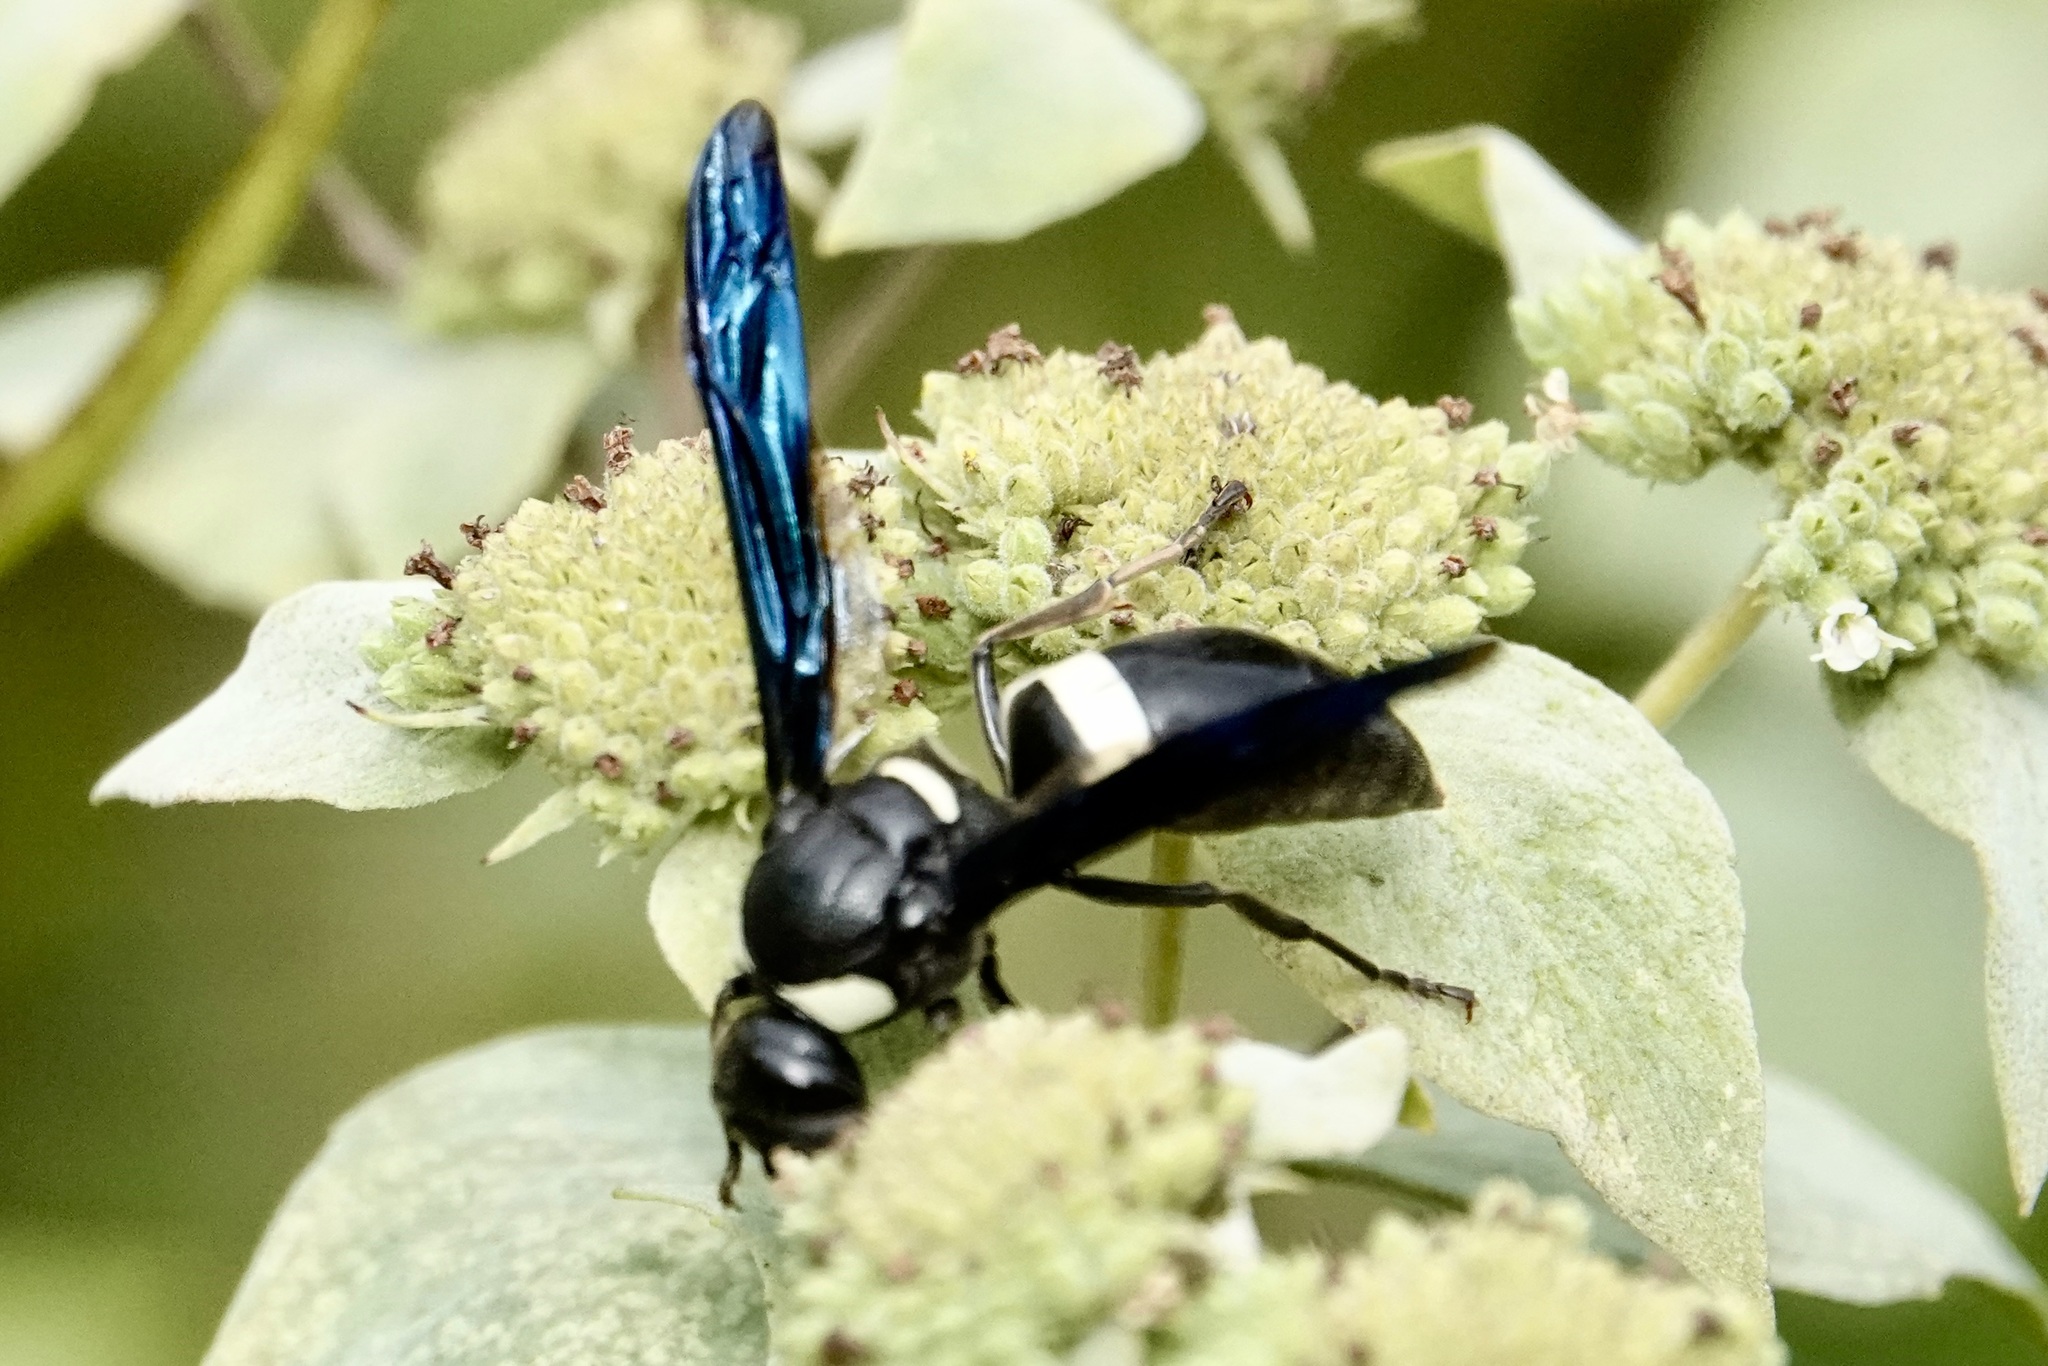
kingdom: Animalia
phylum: Arthropoda
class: Insecta
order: Hymenoptera
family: Eumenidae
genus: Monobia
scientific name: Monobia quadridens
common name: Four-toothed mason wasp
